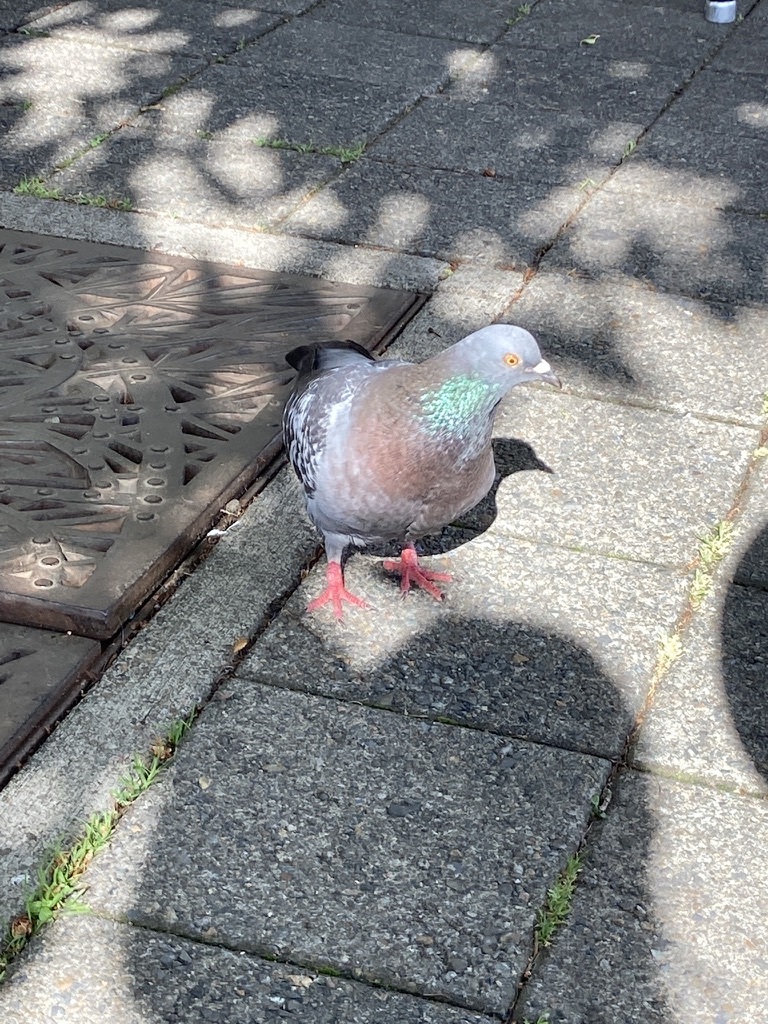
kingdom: Animalia
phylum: Chordata
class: Aves
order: Columbiformes
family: Columbidae
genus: Columba
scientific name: Columba livia
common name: Rock pigeon
